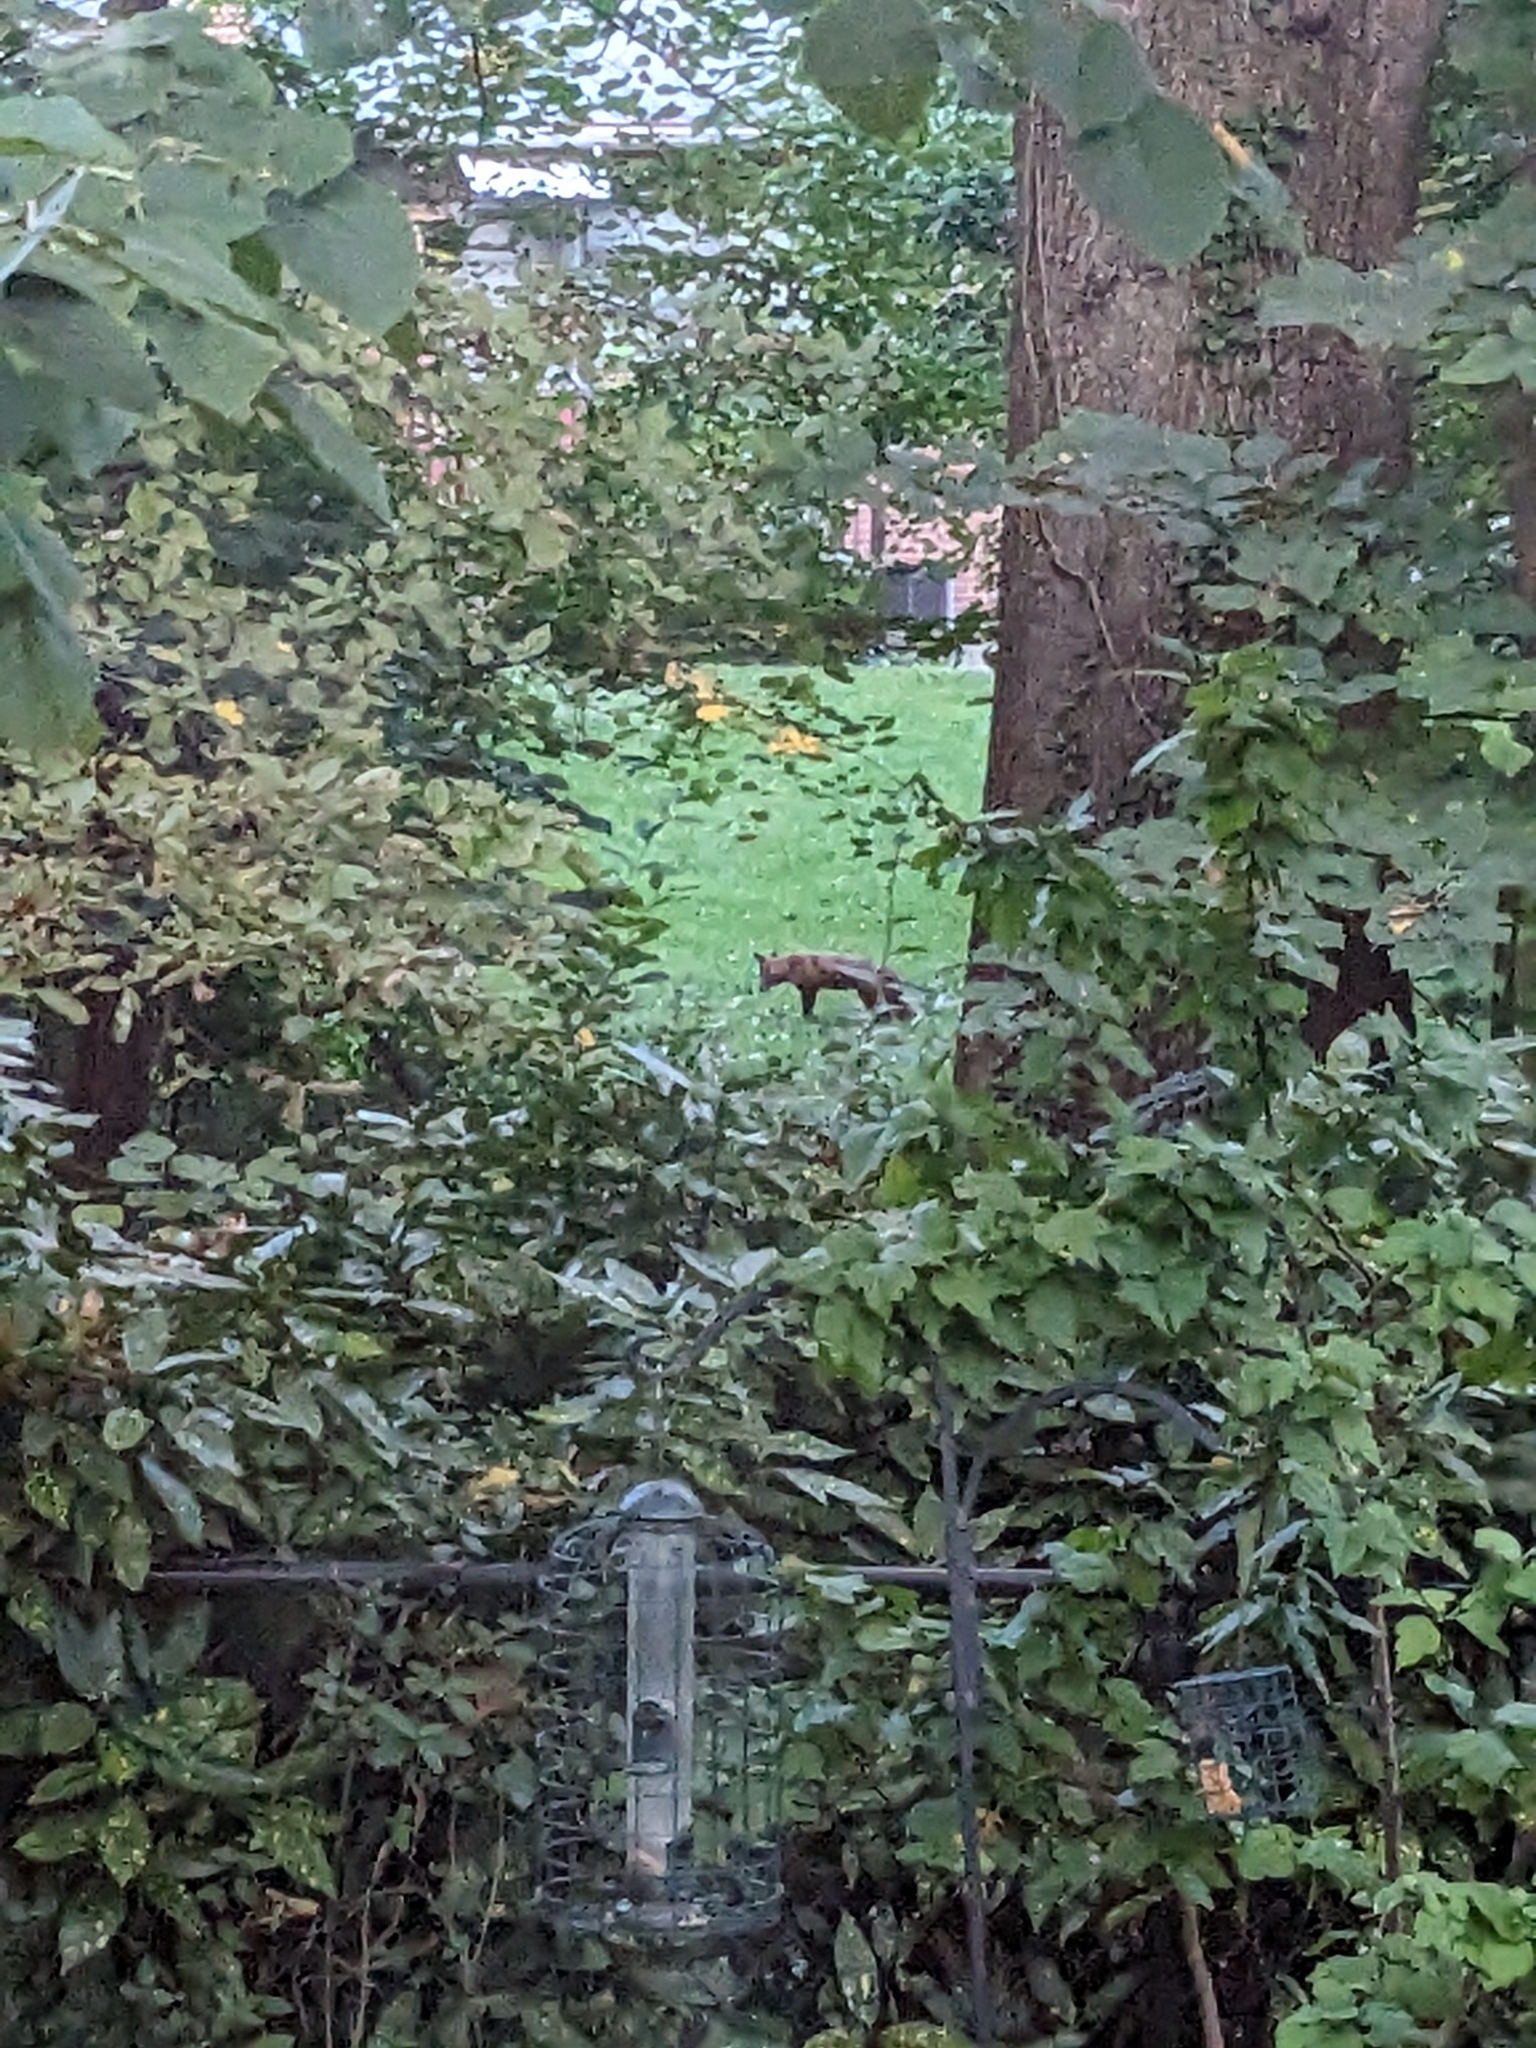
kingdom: Animalia
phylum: Chordata
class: Mammalia
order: Carnivora
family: Canidae
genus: Vulpes
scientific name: Vulpes vulpes
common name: Red fox
